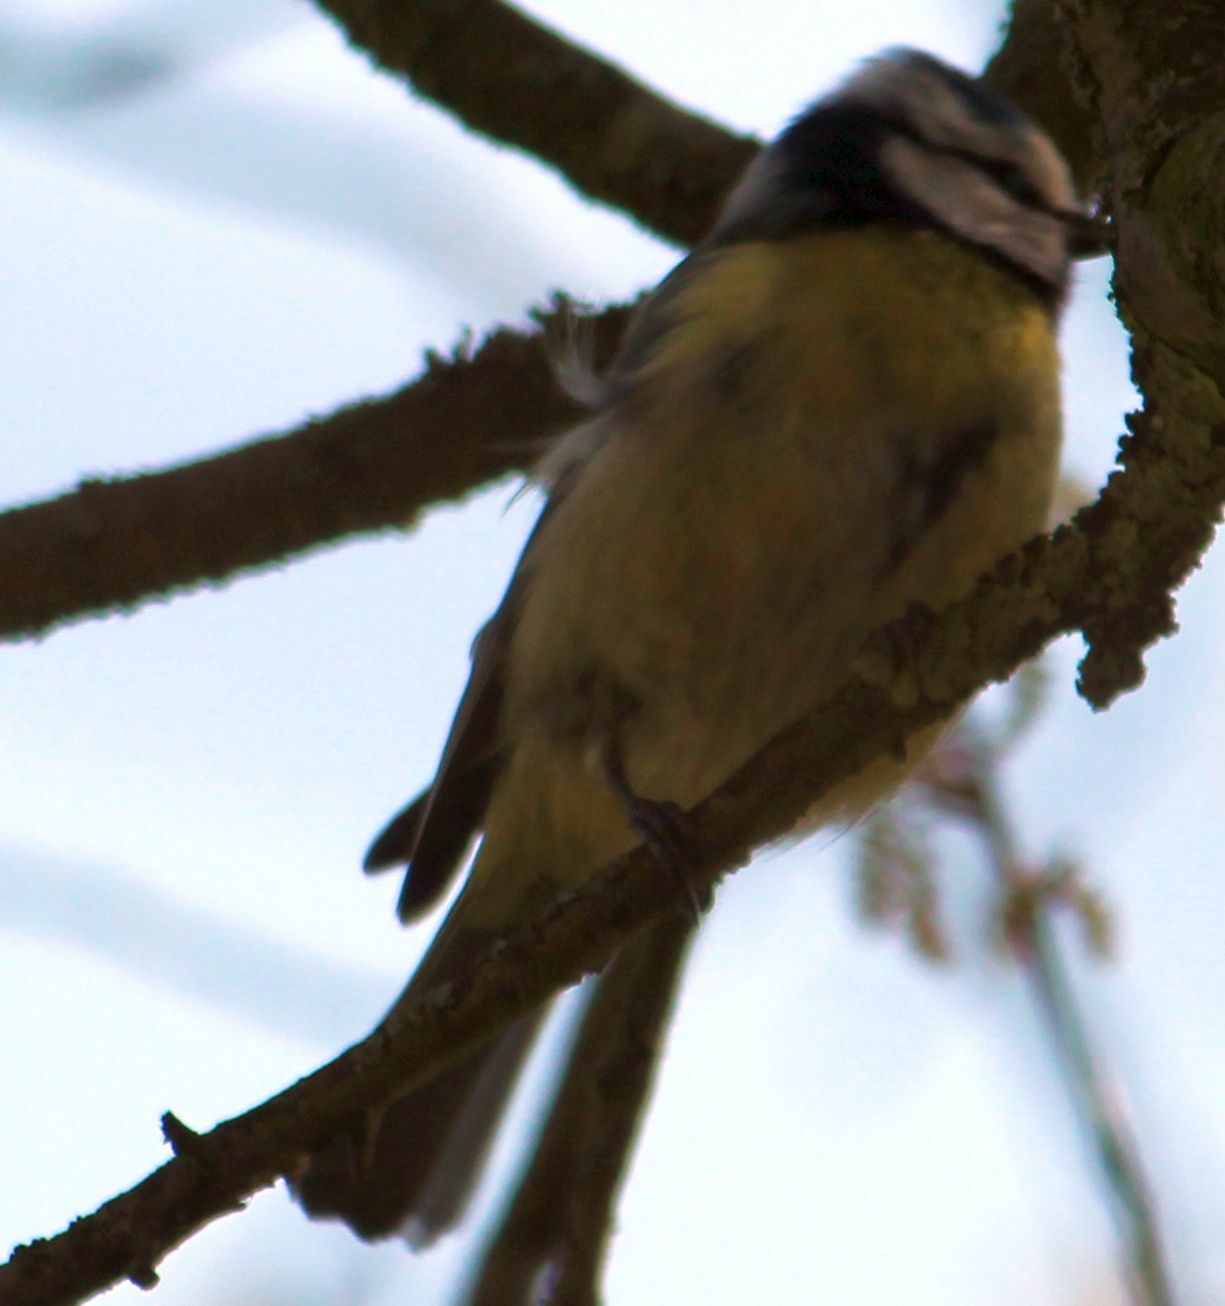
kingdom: Animalia
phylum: Chordata
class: Aves
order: Passeriformes
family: Paridae
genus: Cyanistes
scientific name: Cyanistes caeruleus
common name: Eurasian blue tit
